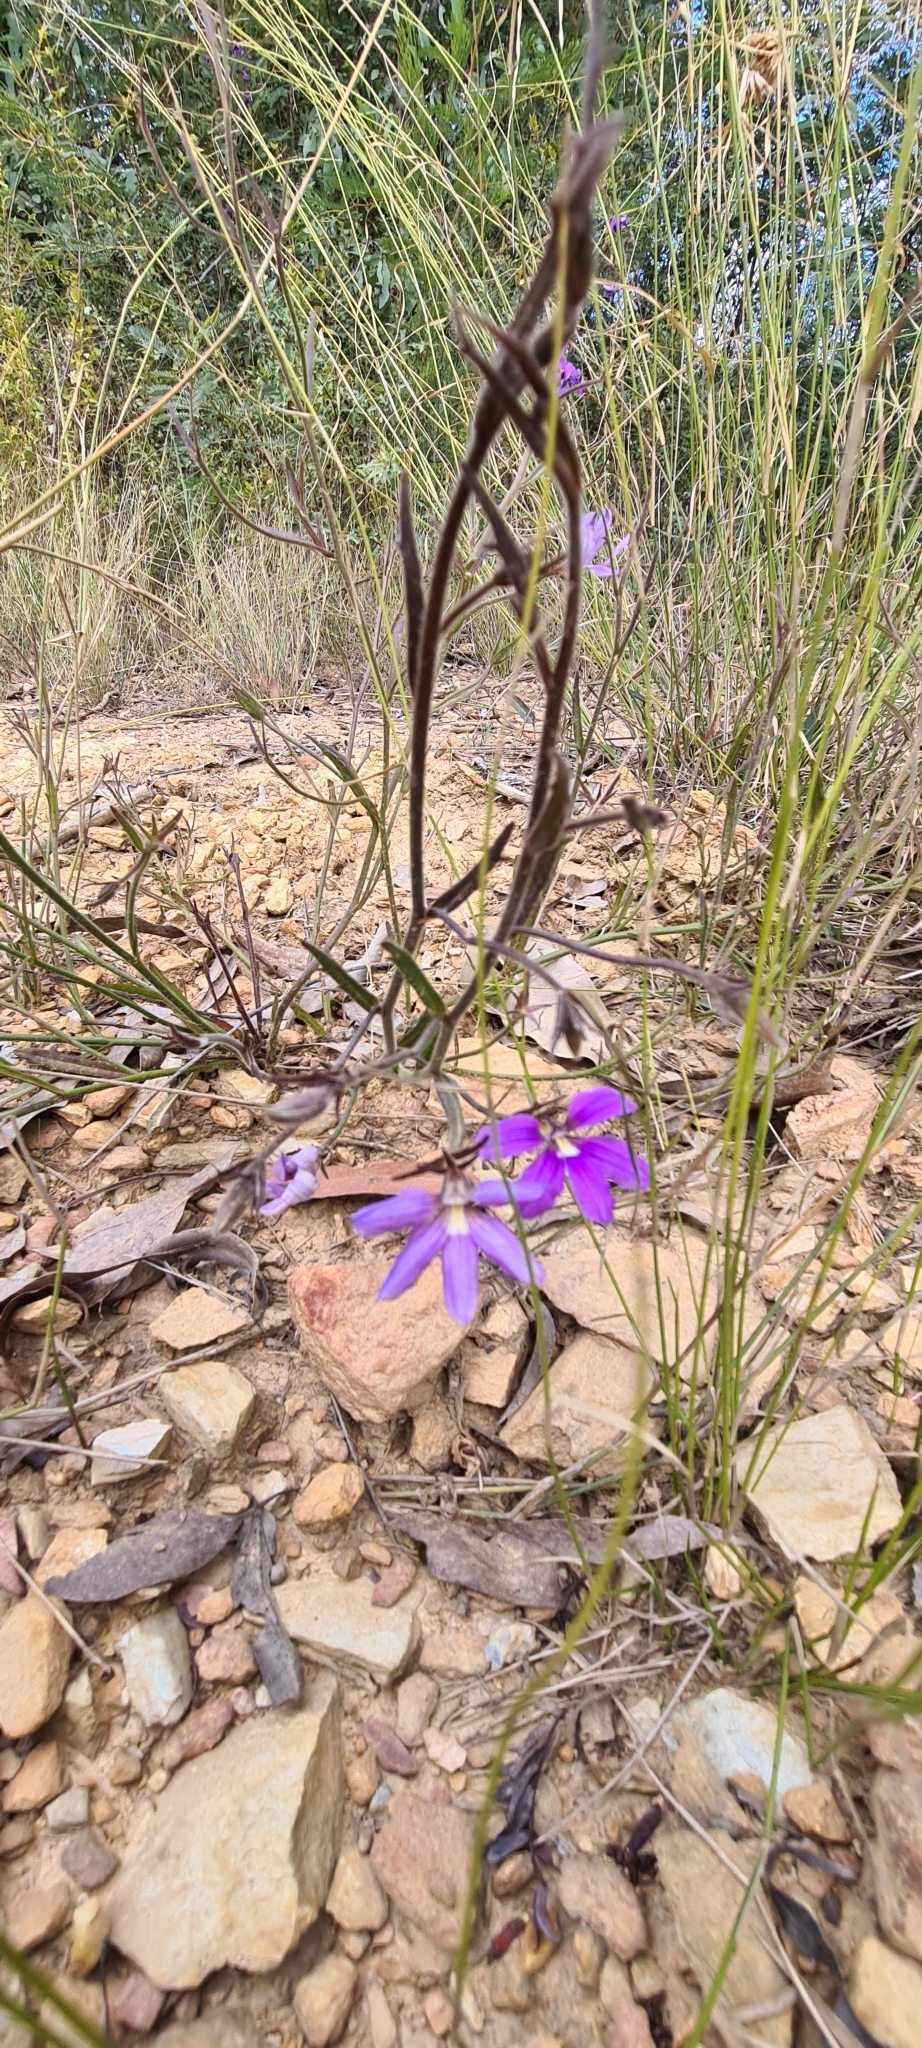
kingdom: Plantae
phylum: Tracheophyta
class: Magnoliopsida
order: Asterales
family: Goodeniaceae
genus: Scaevola
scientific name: Scaevola ramosissima
